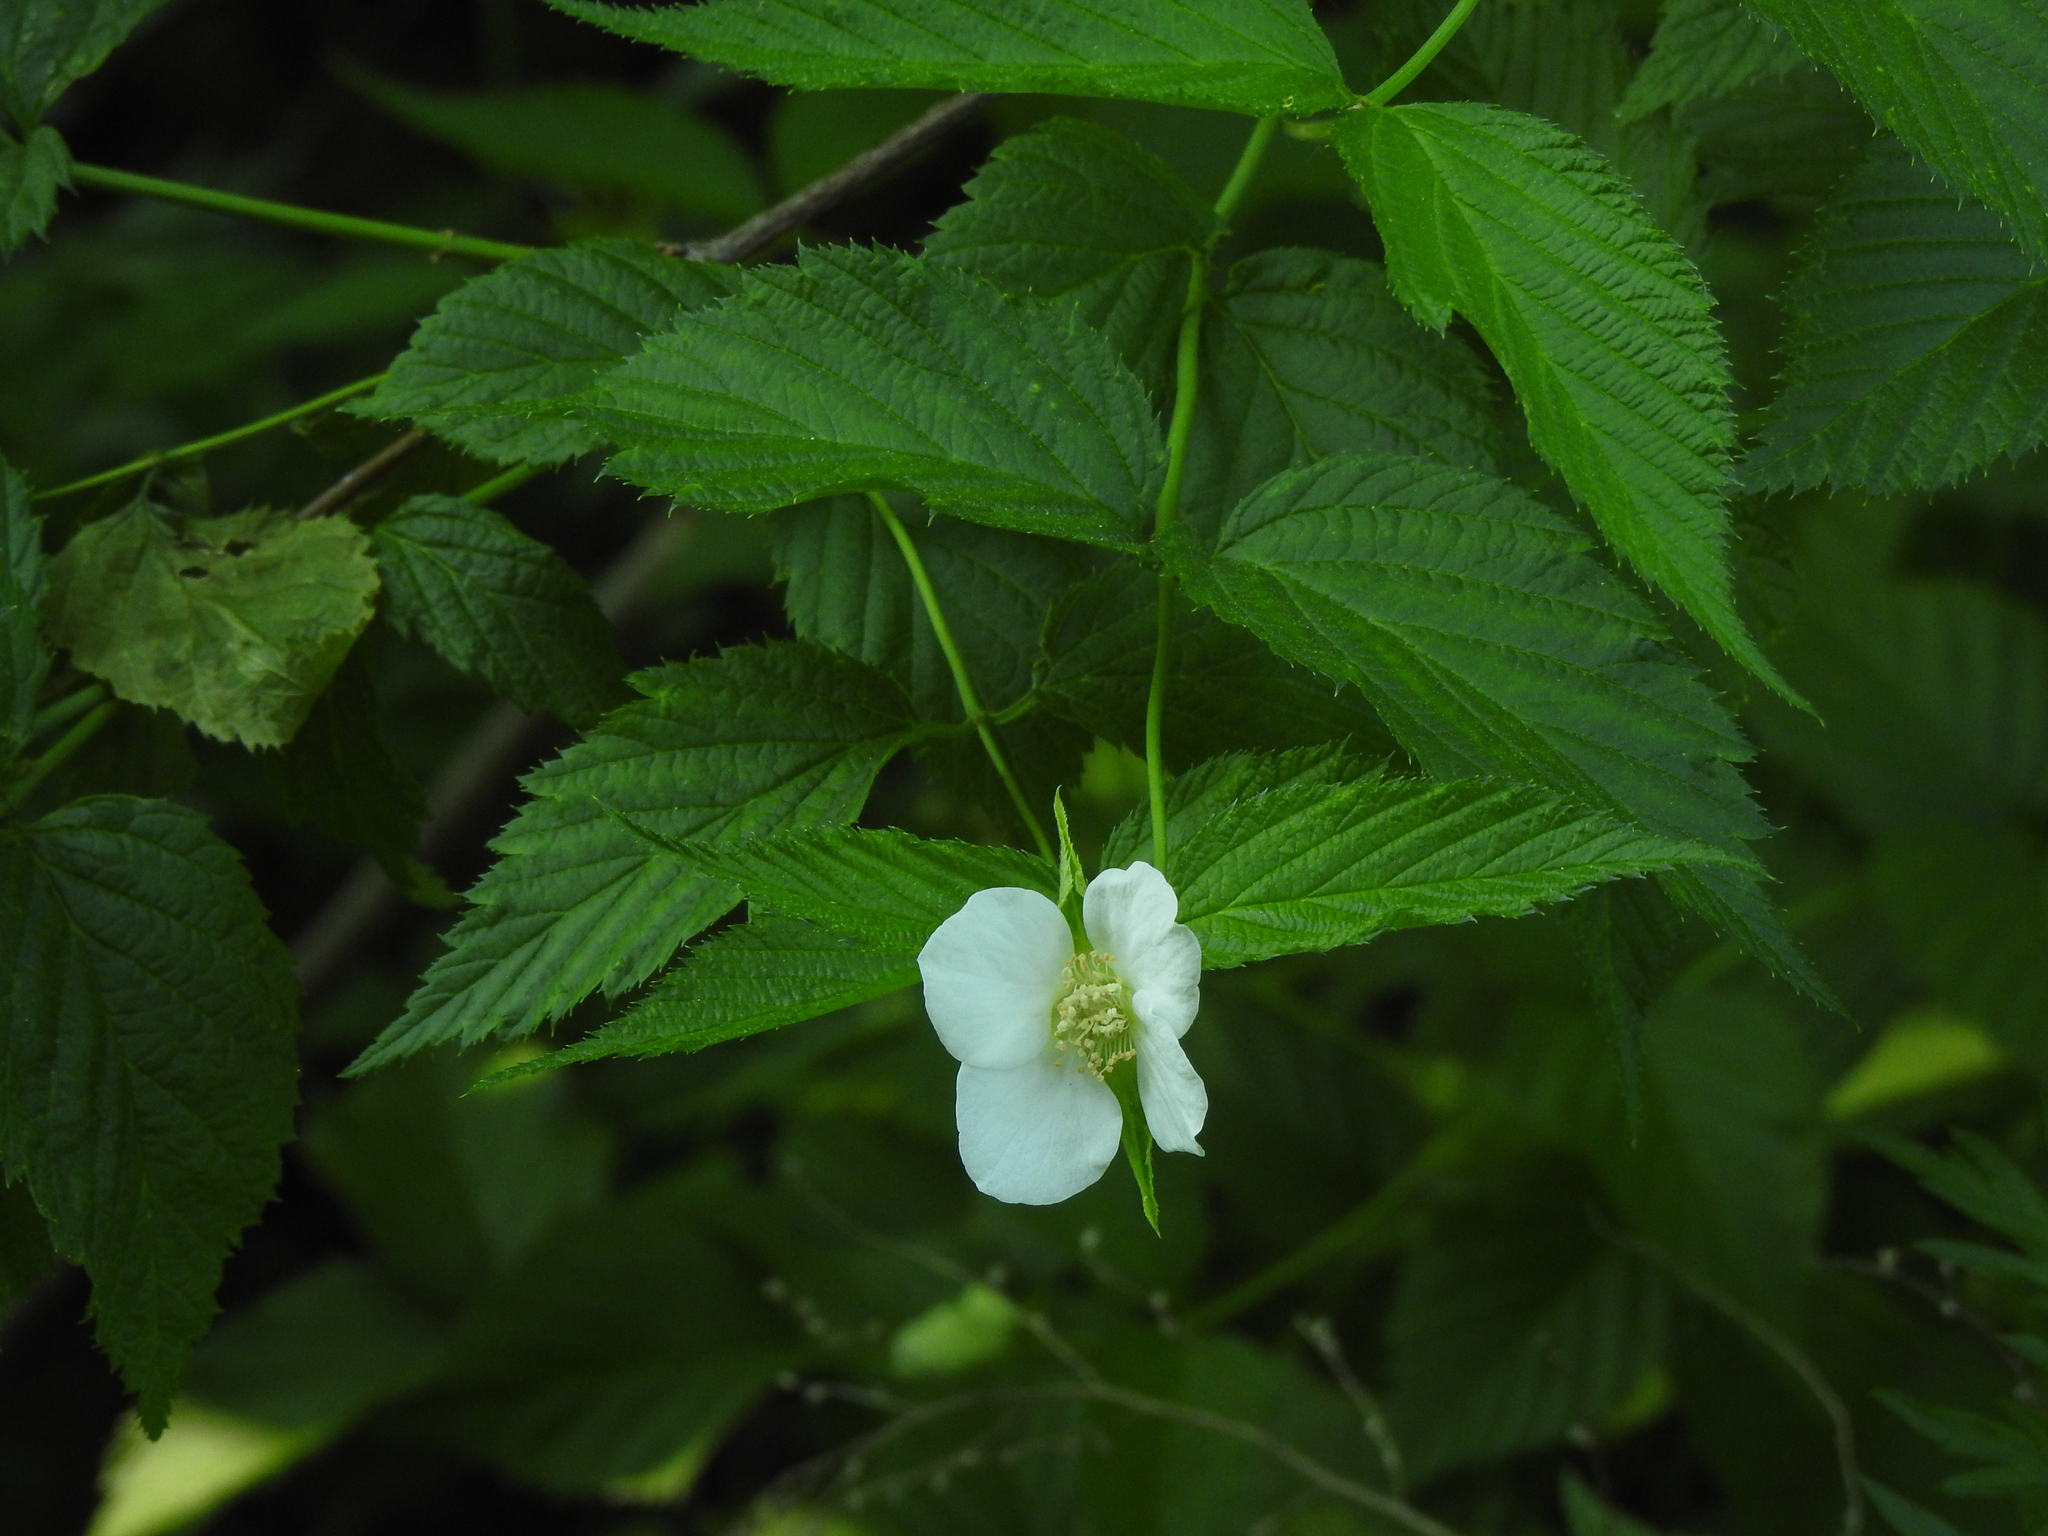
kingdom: Plantae
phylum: Tracheophyta
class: Magnoliopsida
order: Rosales
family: Rosaceae
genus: Rhodotypos
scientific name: Rhodotypos scandens
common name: Jetbead
